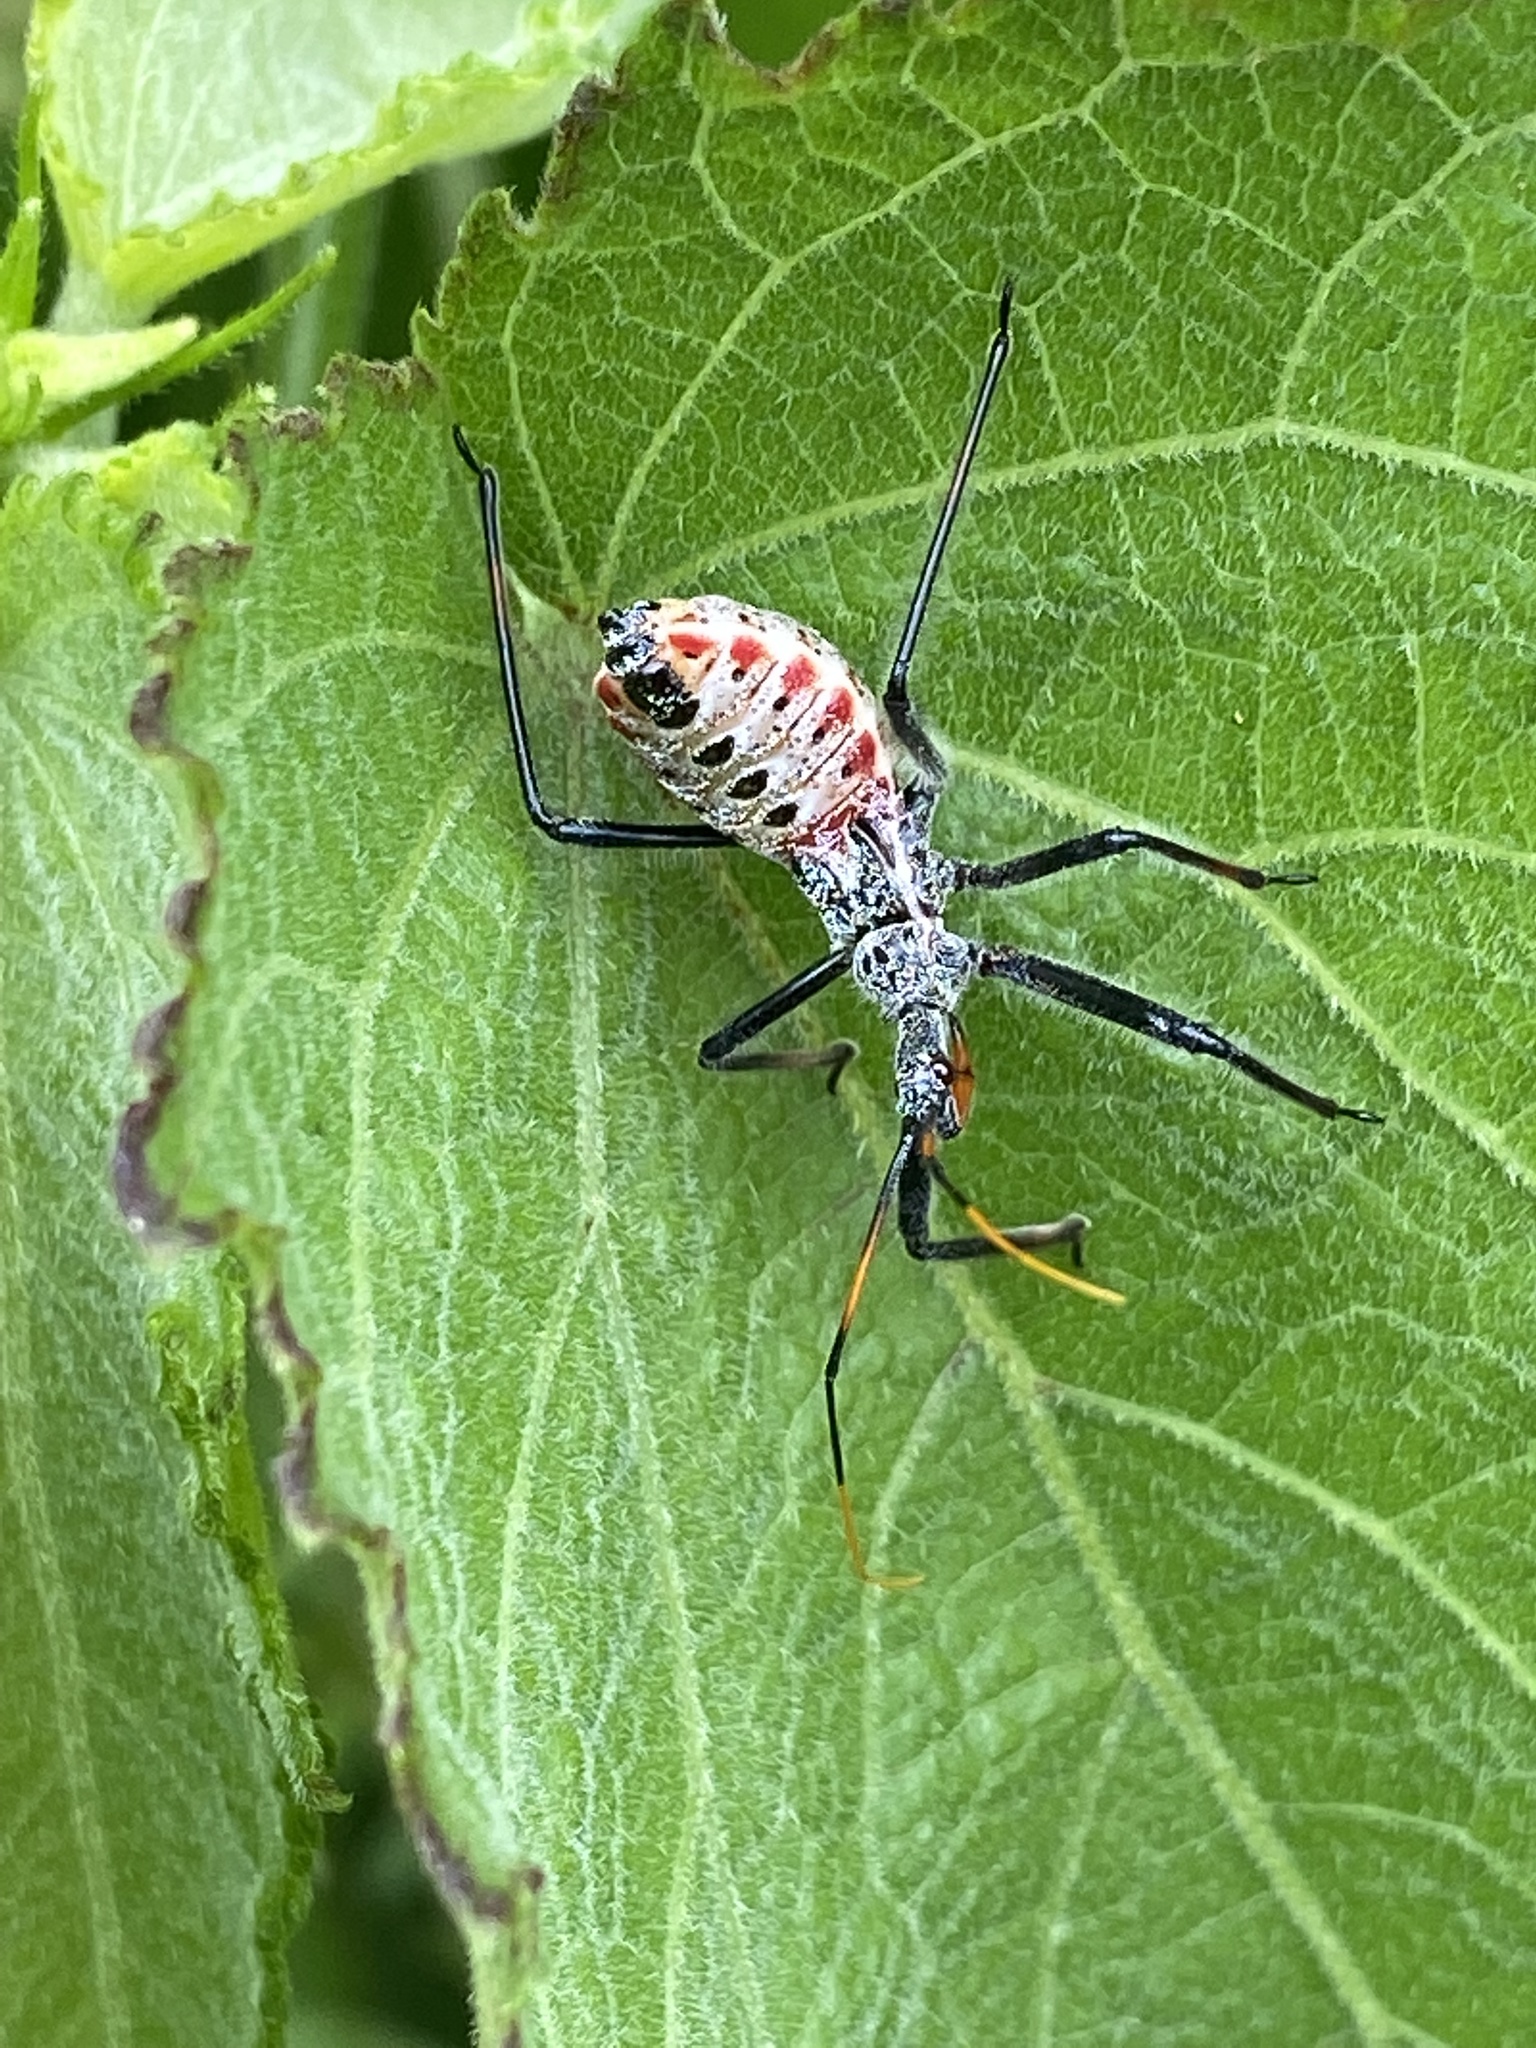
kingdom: Animalia
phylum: Arthropoda
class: Insecta
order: Hemiptera
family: Reduviidae
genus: Arilus
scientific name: Arilus cristatus
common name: North american wheel bug
